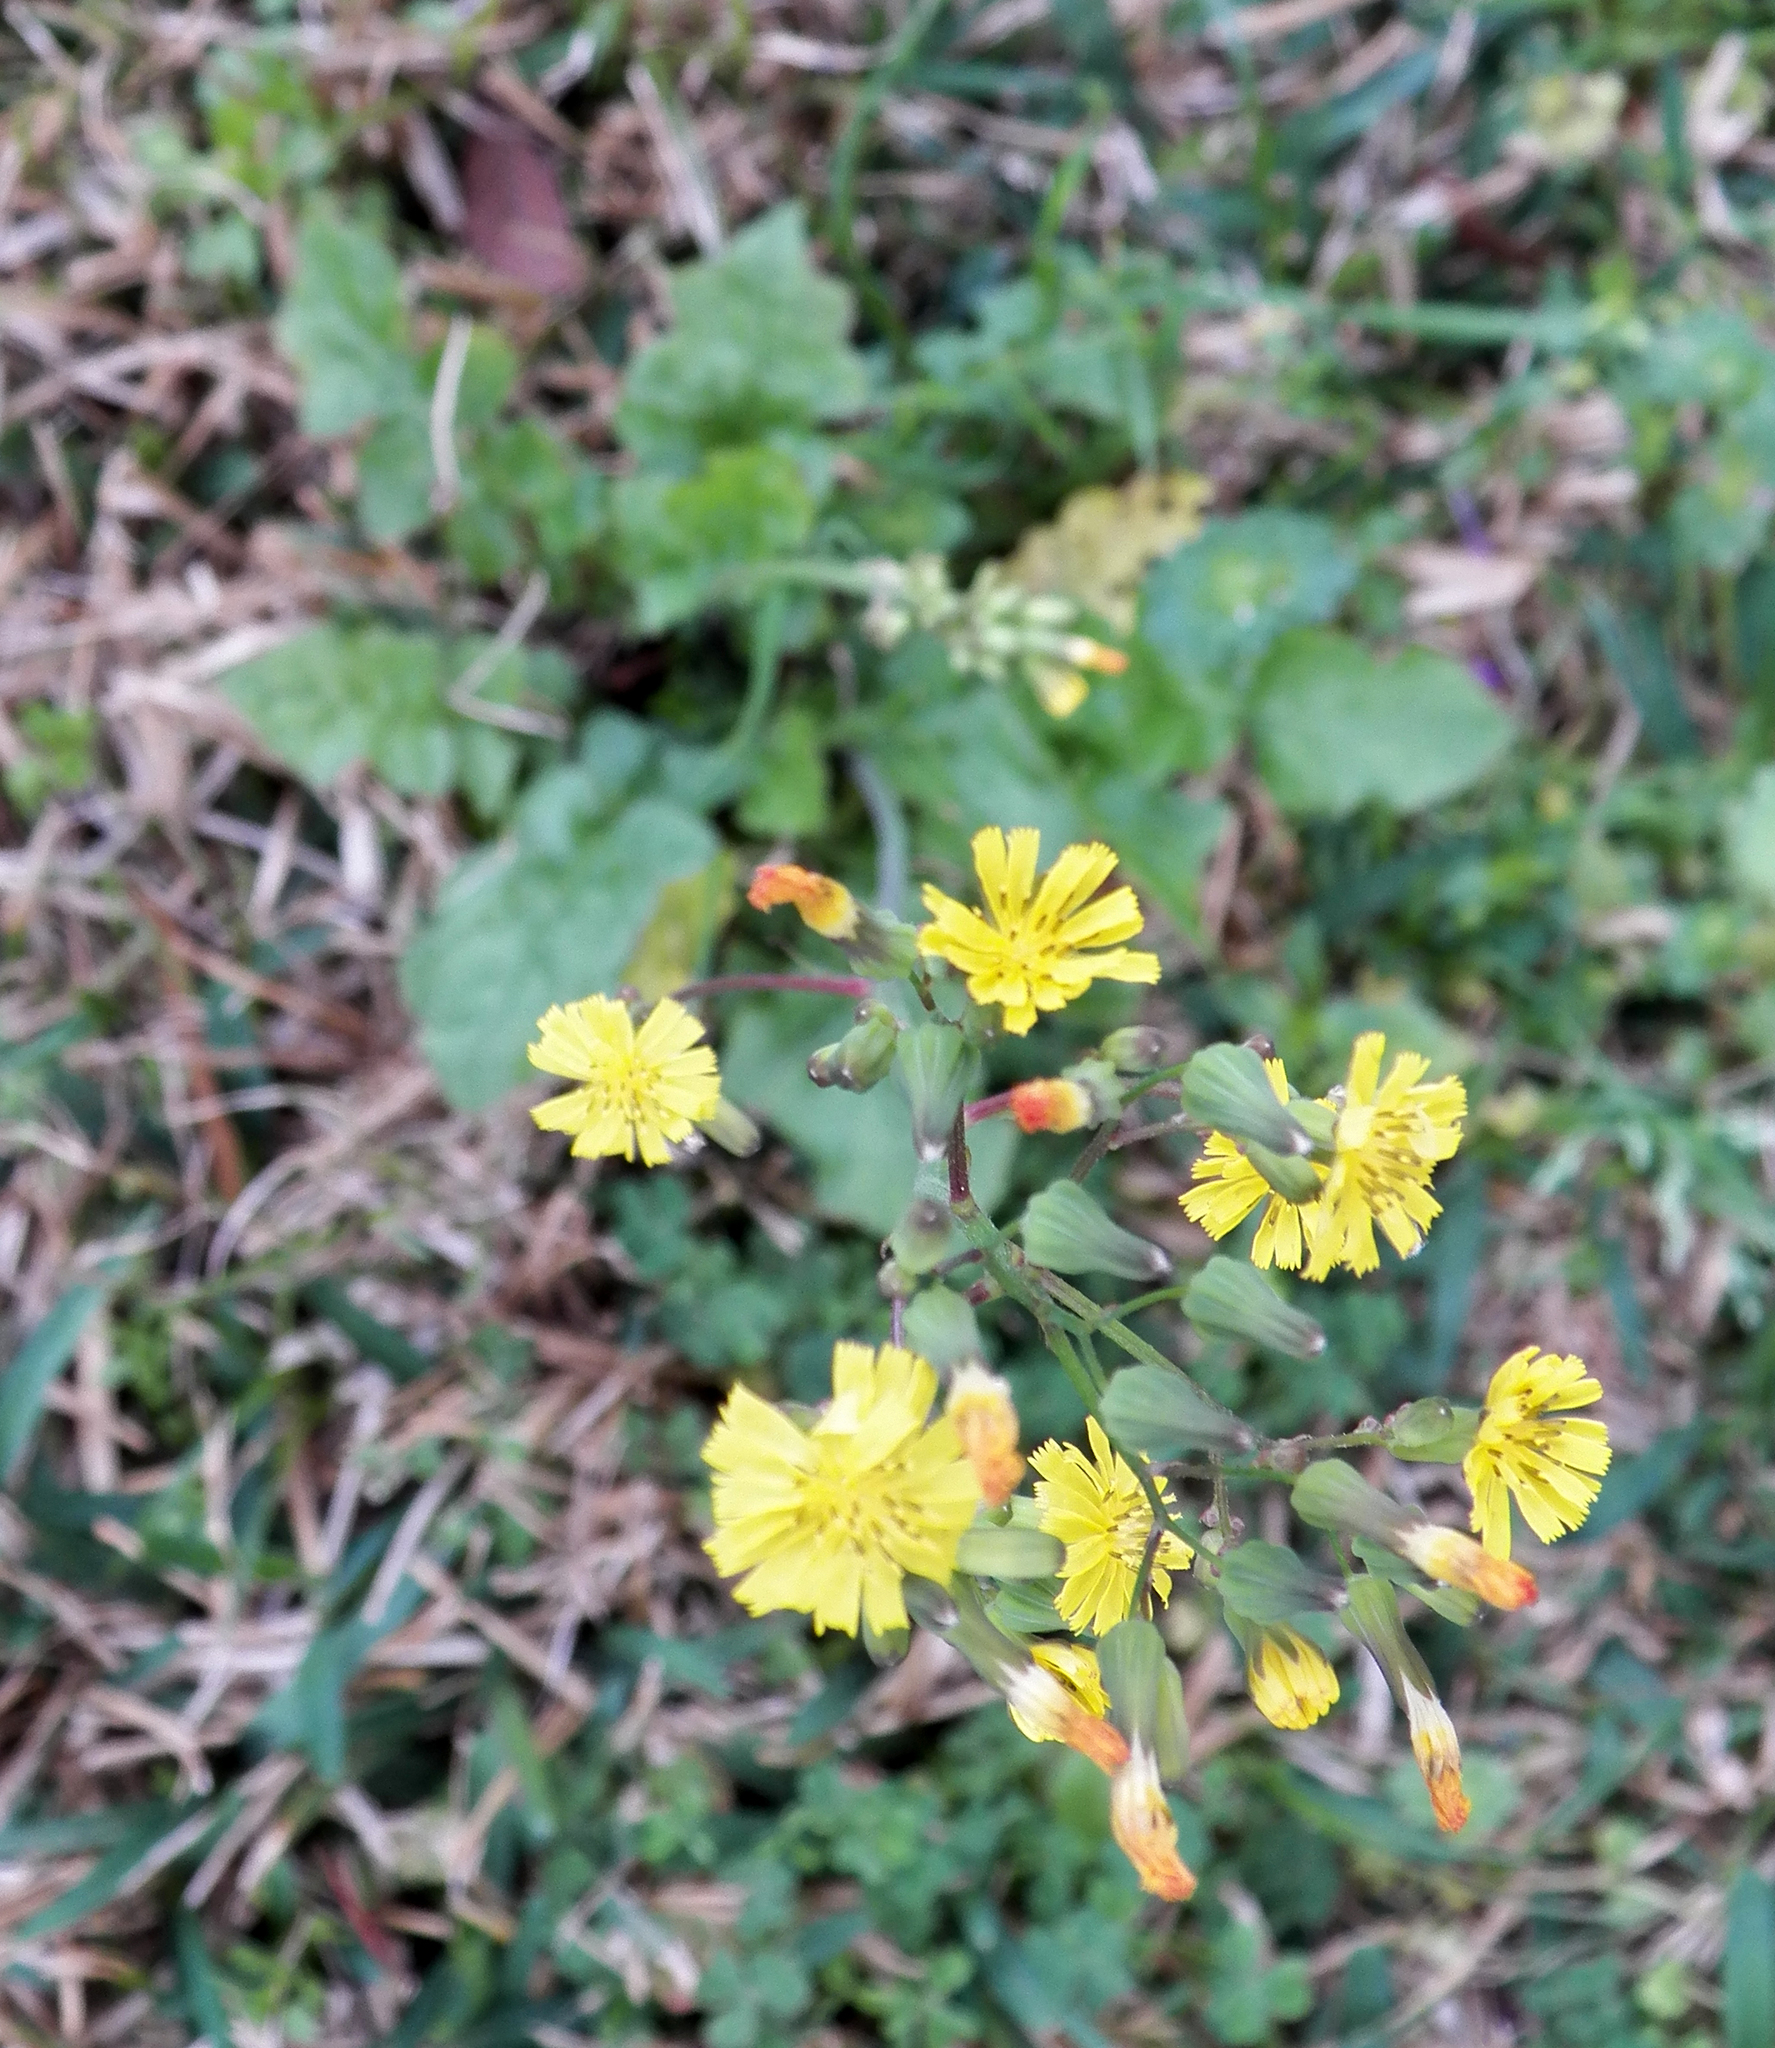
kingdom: Plantae
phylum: Tracheophyta
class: Magnoliopsida
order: Asterales
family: Asteraceae
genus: Youngia
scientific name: Youngia japonica
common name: Oriental false hawksbeard
